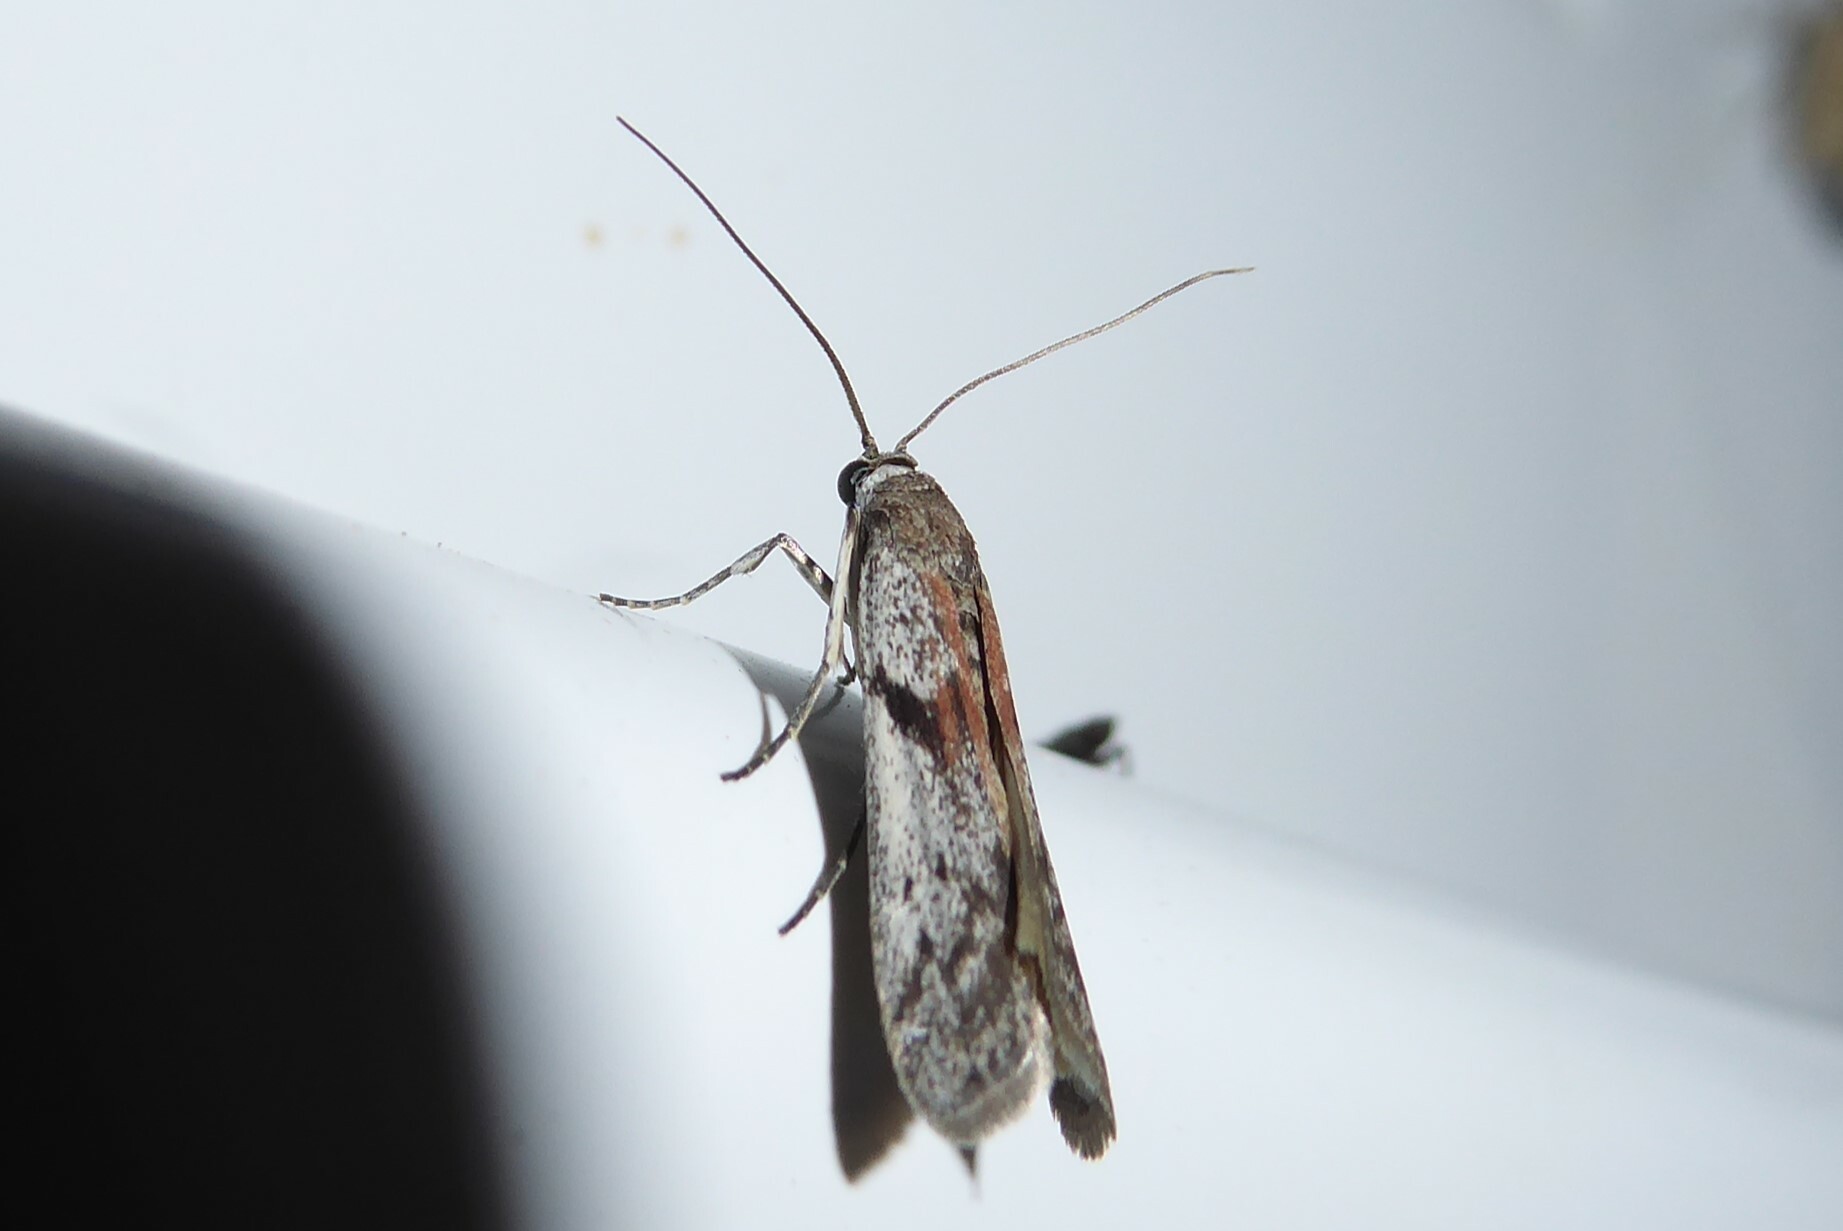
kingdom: Animalia
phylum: Arthropoda
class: Insecta
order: Lepidoptera
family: Pyralidae
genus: Patagoniodes
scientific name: Patagoniodes farinaria
